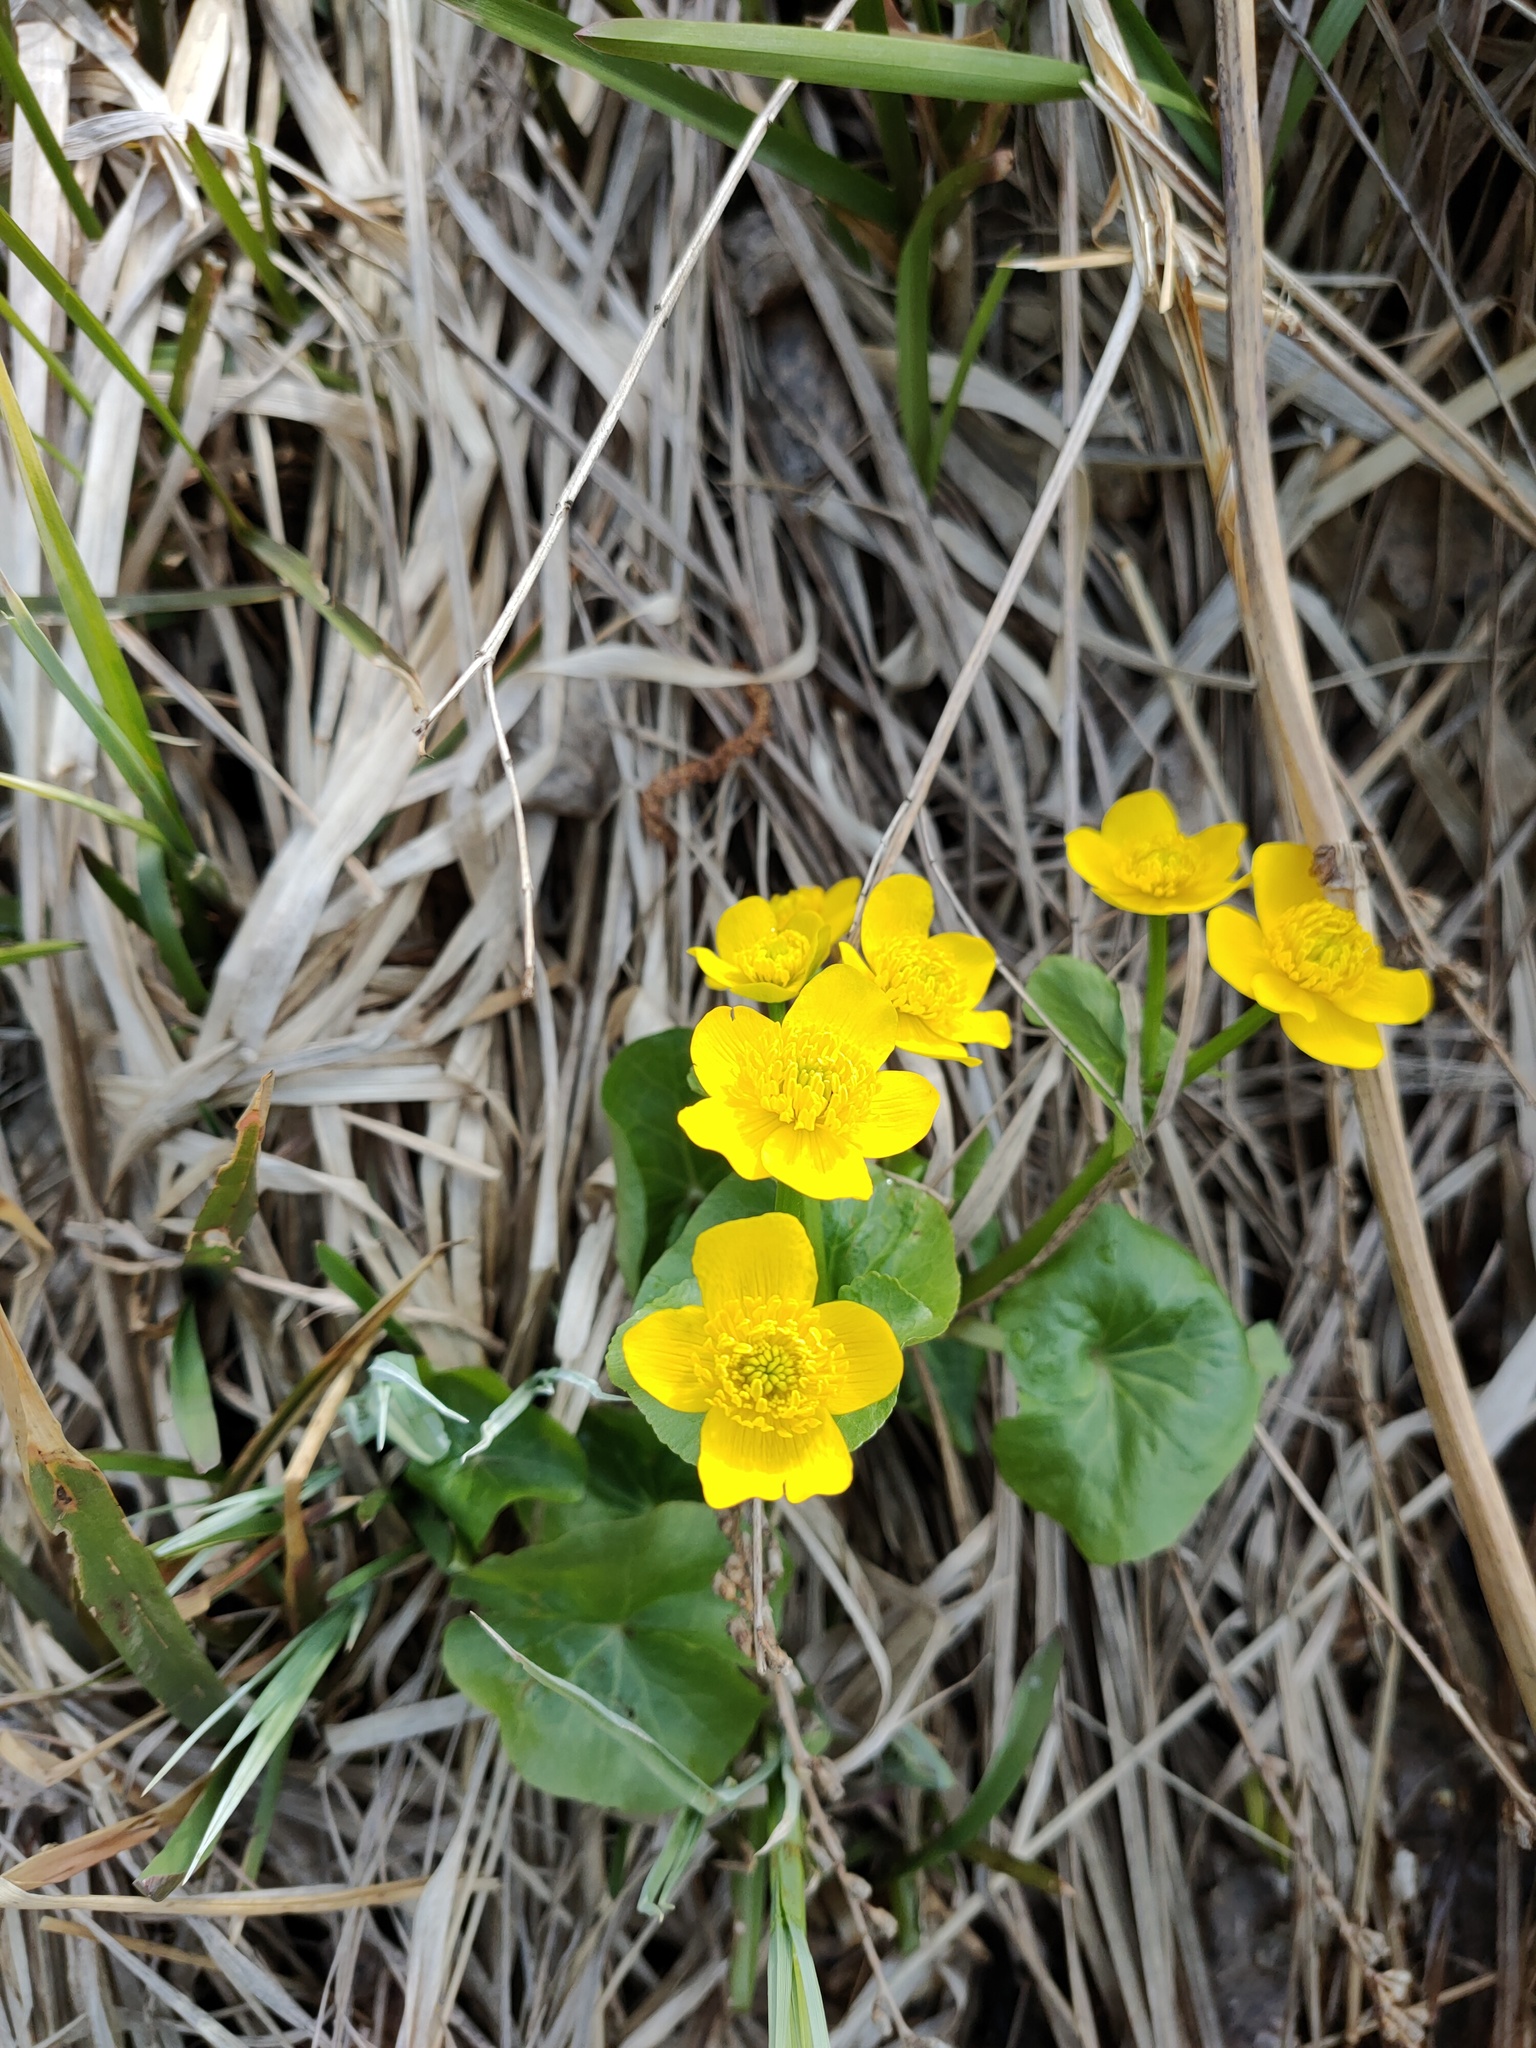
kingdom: Plantae
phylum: Tracheophyta
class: Magnoliopsida
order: Ranunculales
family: Ranunculaceae
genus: Caltha
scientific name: Caltha palustris
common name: Marsh marigold
